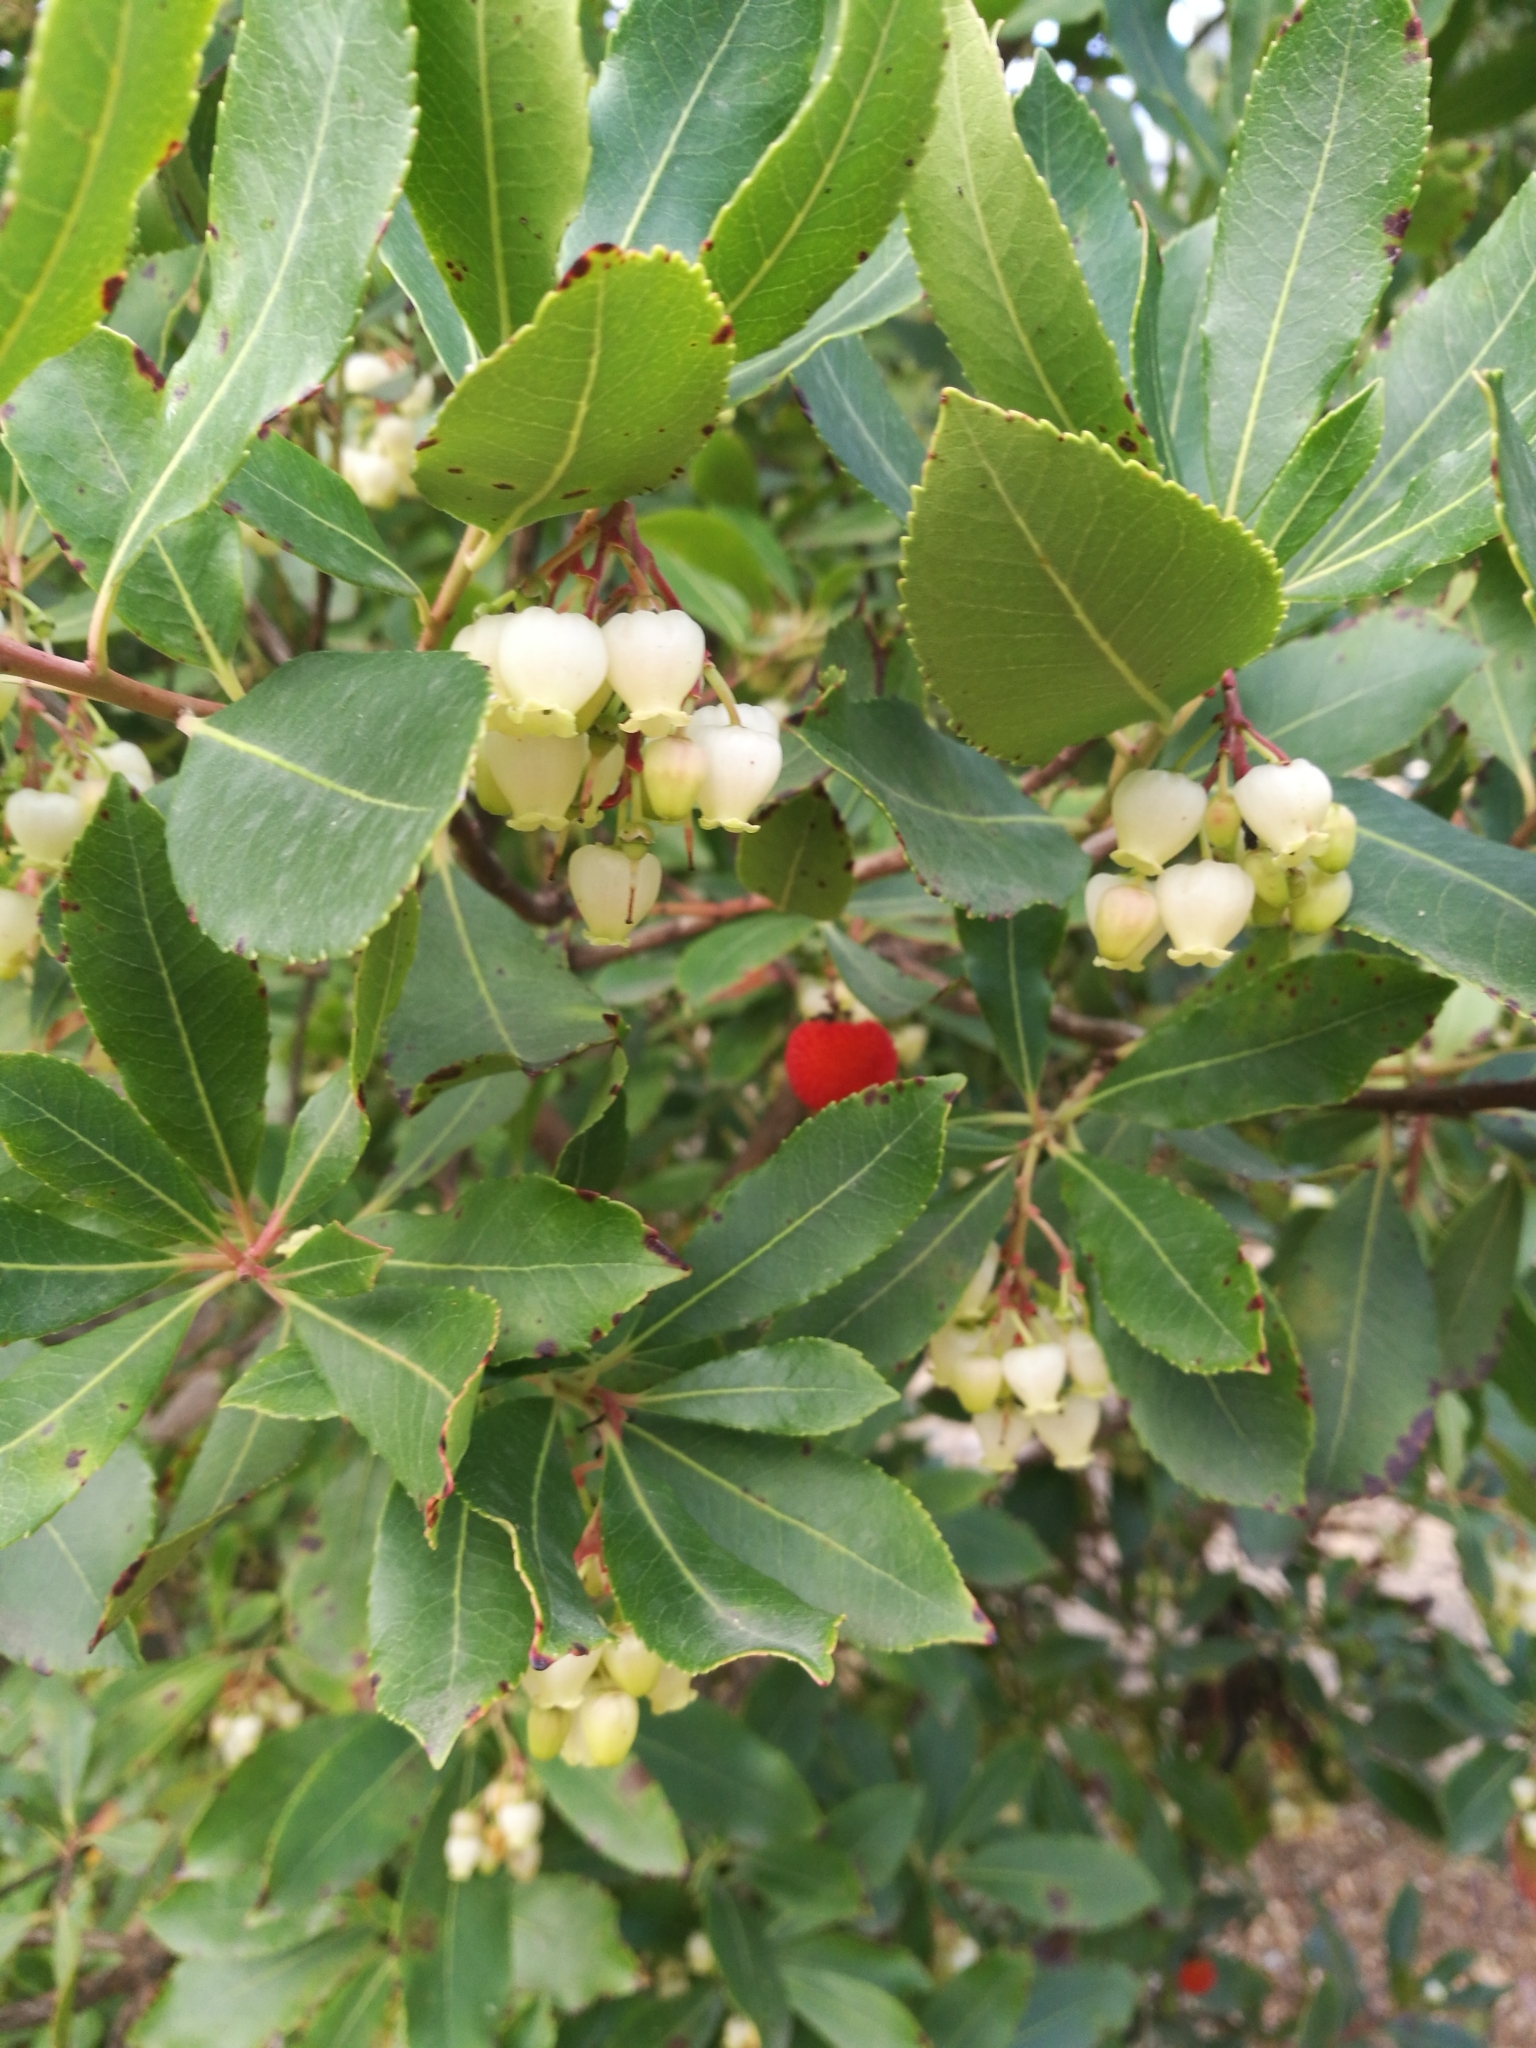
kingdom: Plantae
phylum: Tracheophyta
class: Magnoliopsida
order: Ericales
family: Ericaceae
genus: Arbutus
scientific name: Arbutus unedo
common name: Strawberry-tree
